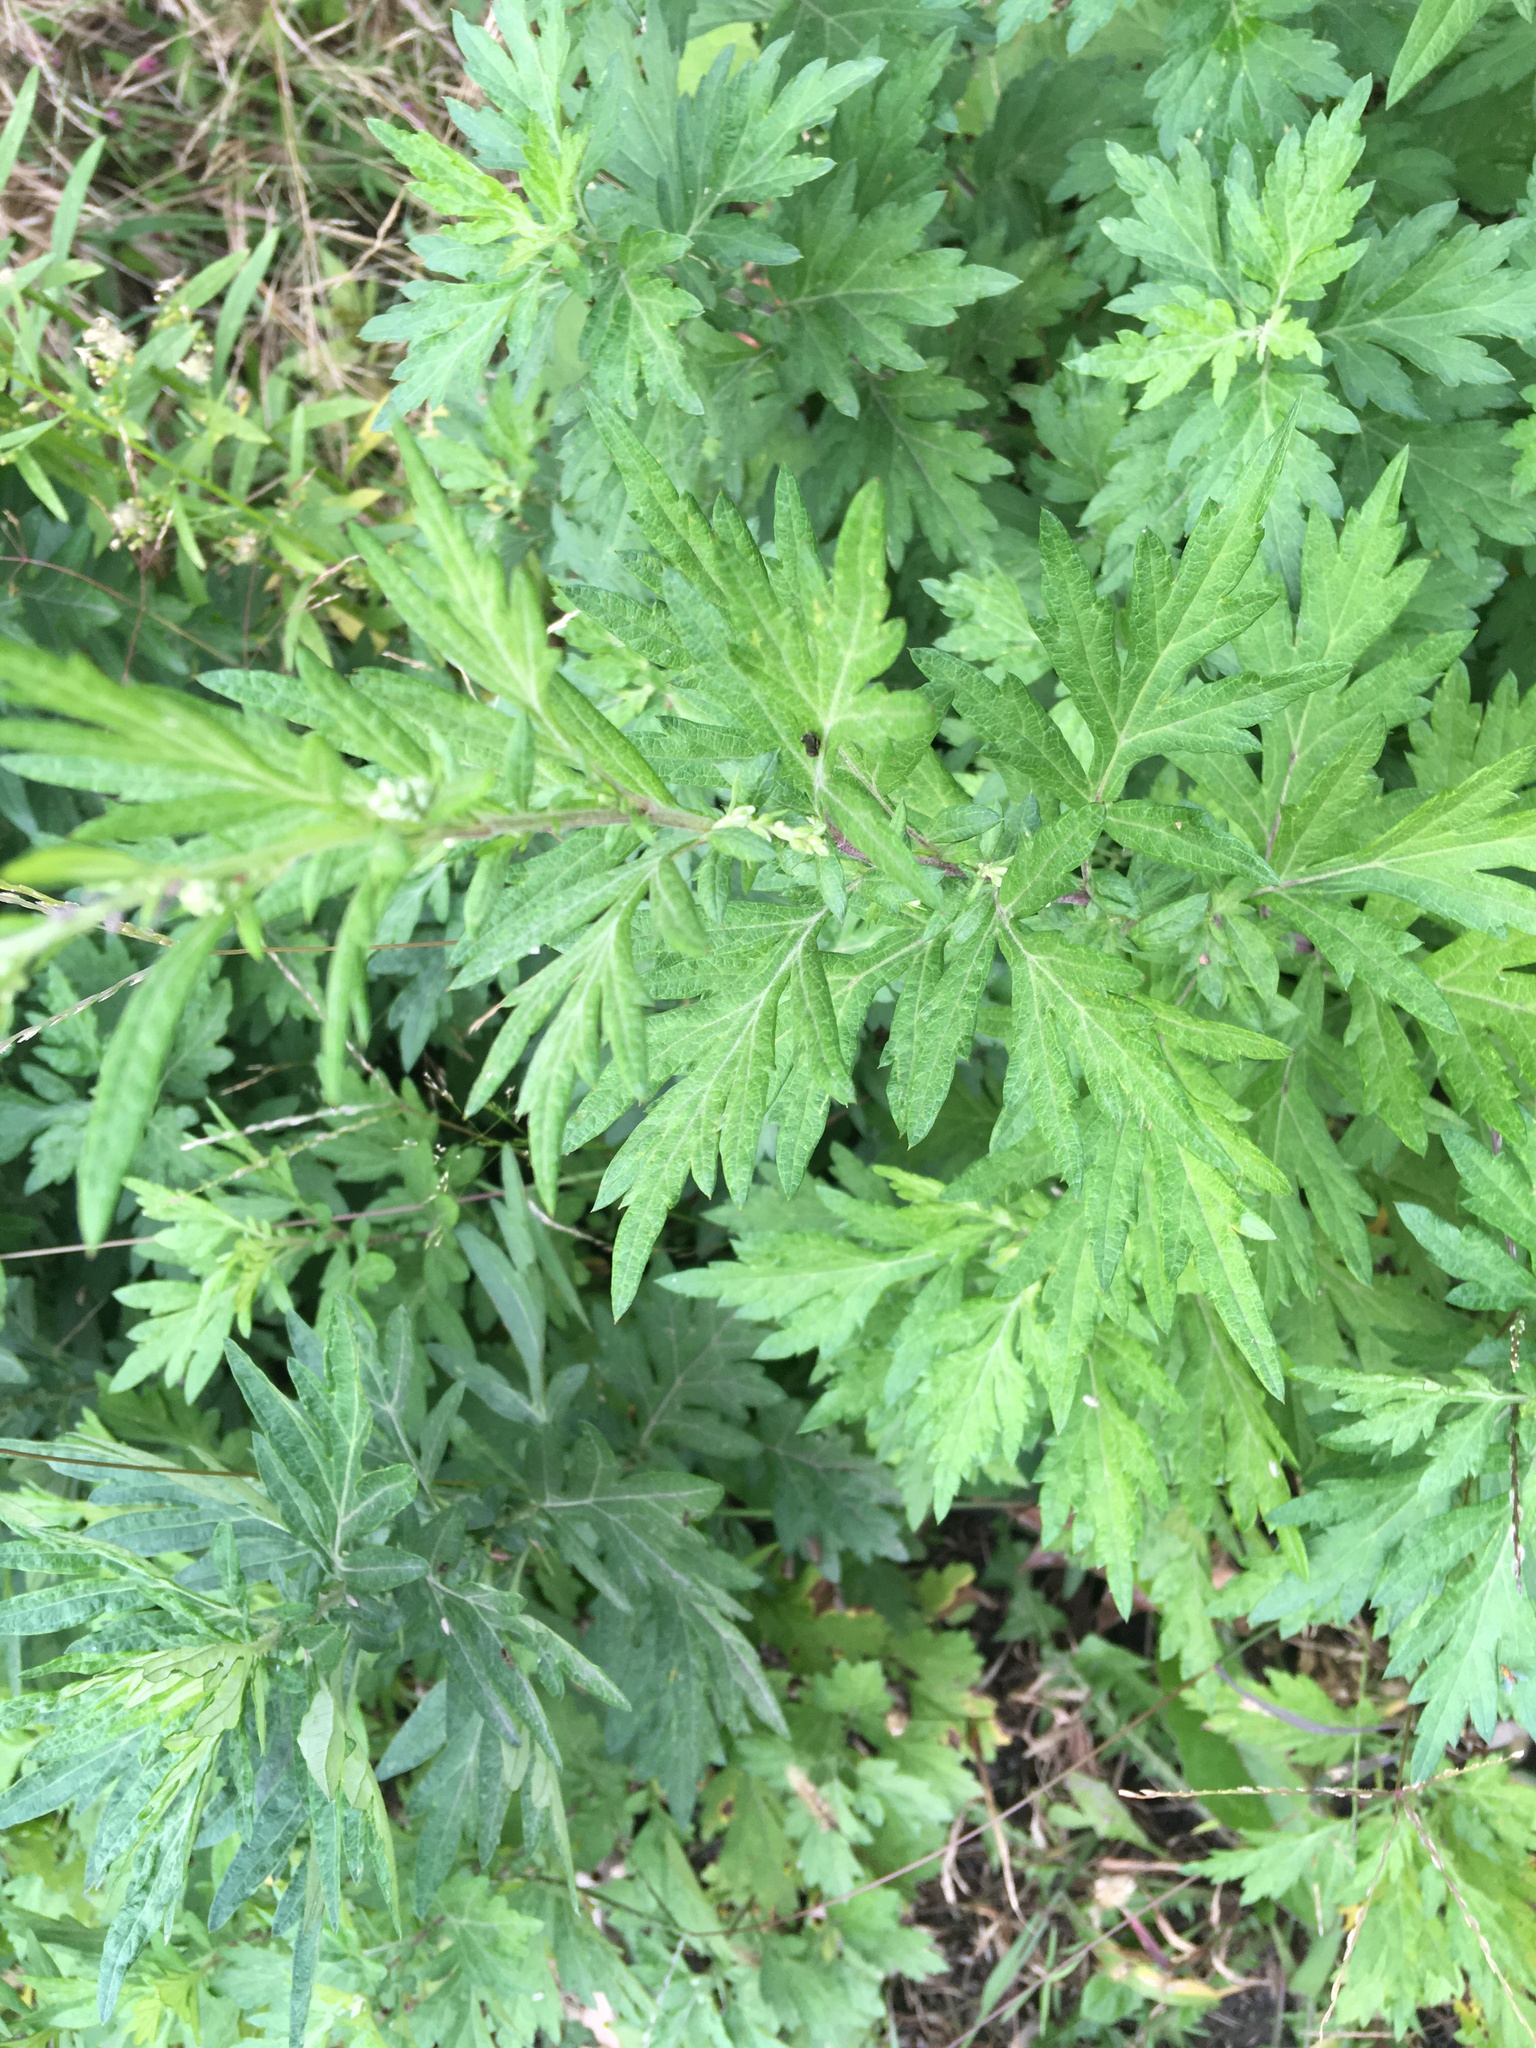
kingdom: Plantae
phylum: Tracheophyta
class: Magnoliopsida
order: Asterales
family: Asteraceae
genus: Artemisia
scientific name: Artemisia vulgaris
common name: Mugwort
